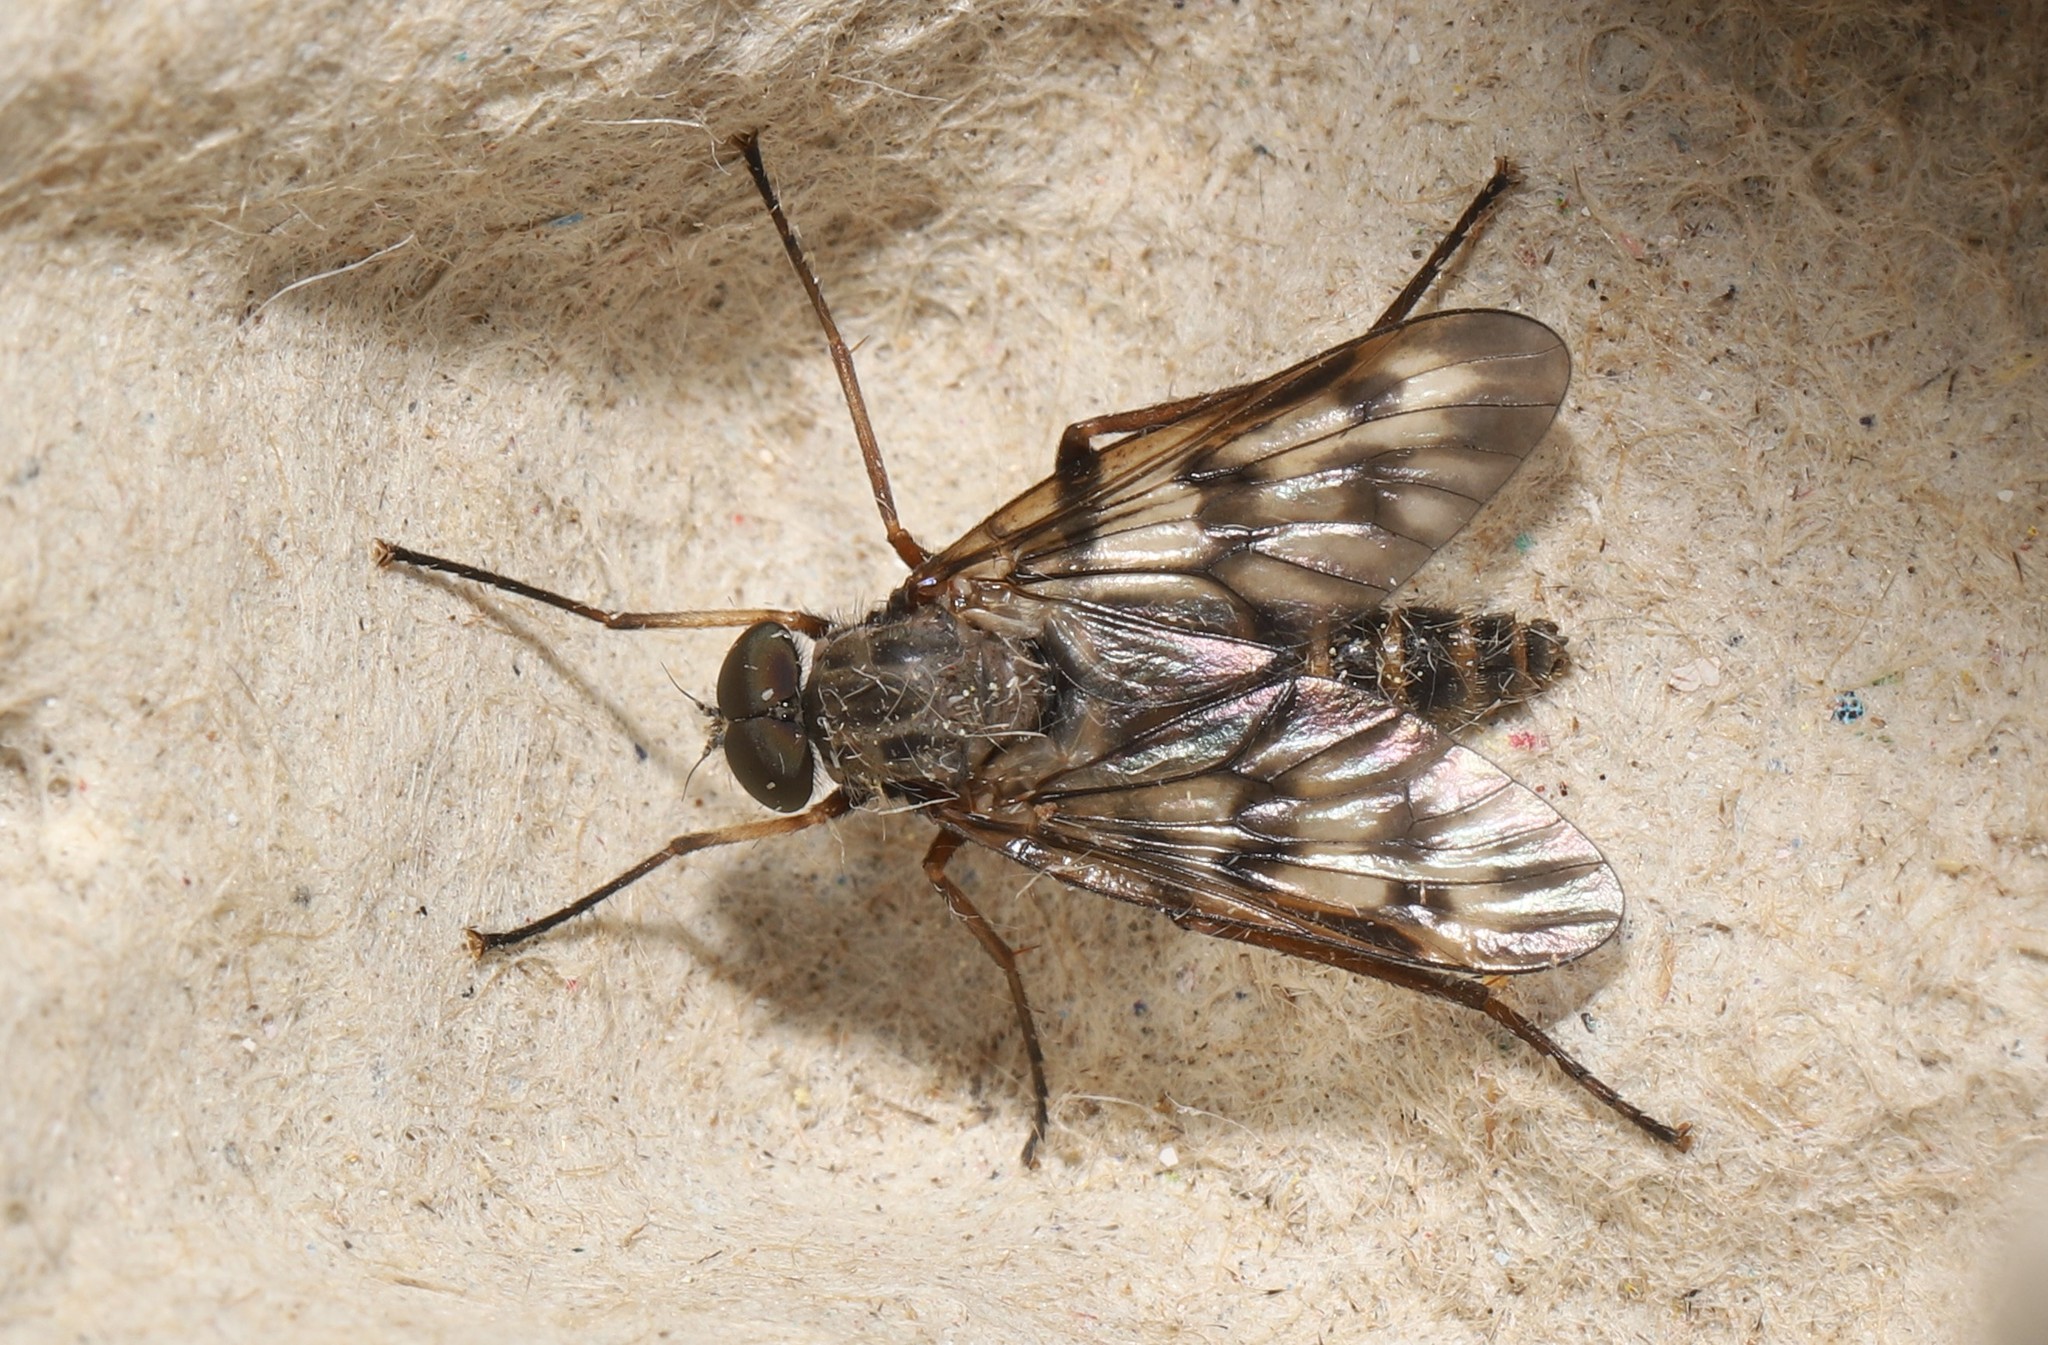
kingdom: Animalia
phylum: Arthropoda
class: Insecta
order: Diptera
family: Rhagionidae
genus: Rhagio
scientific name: Rhagio mystaceus
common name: Common snipe fly
